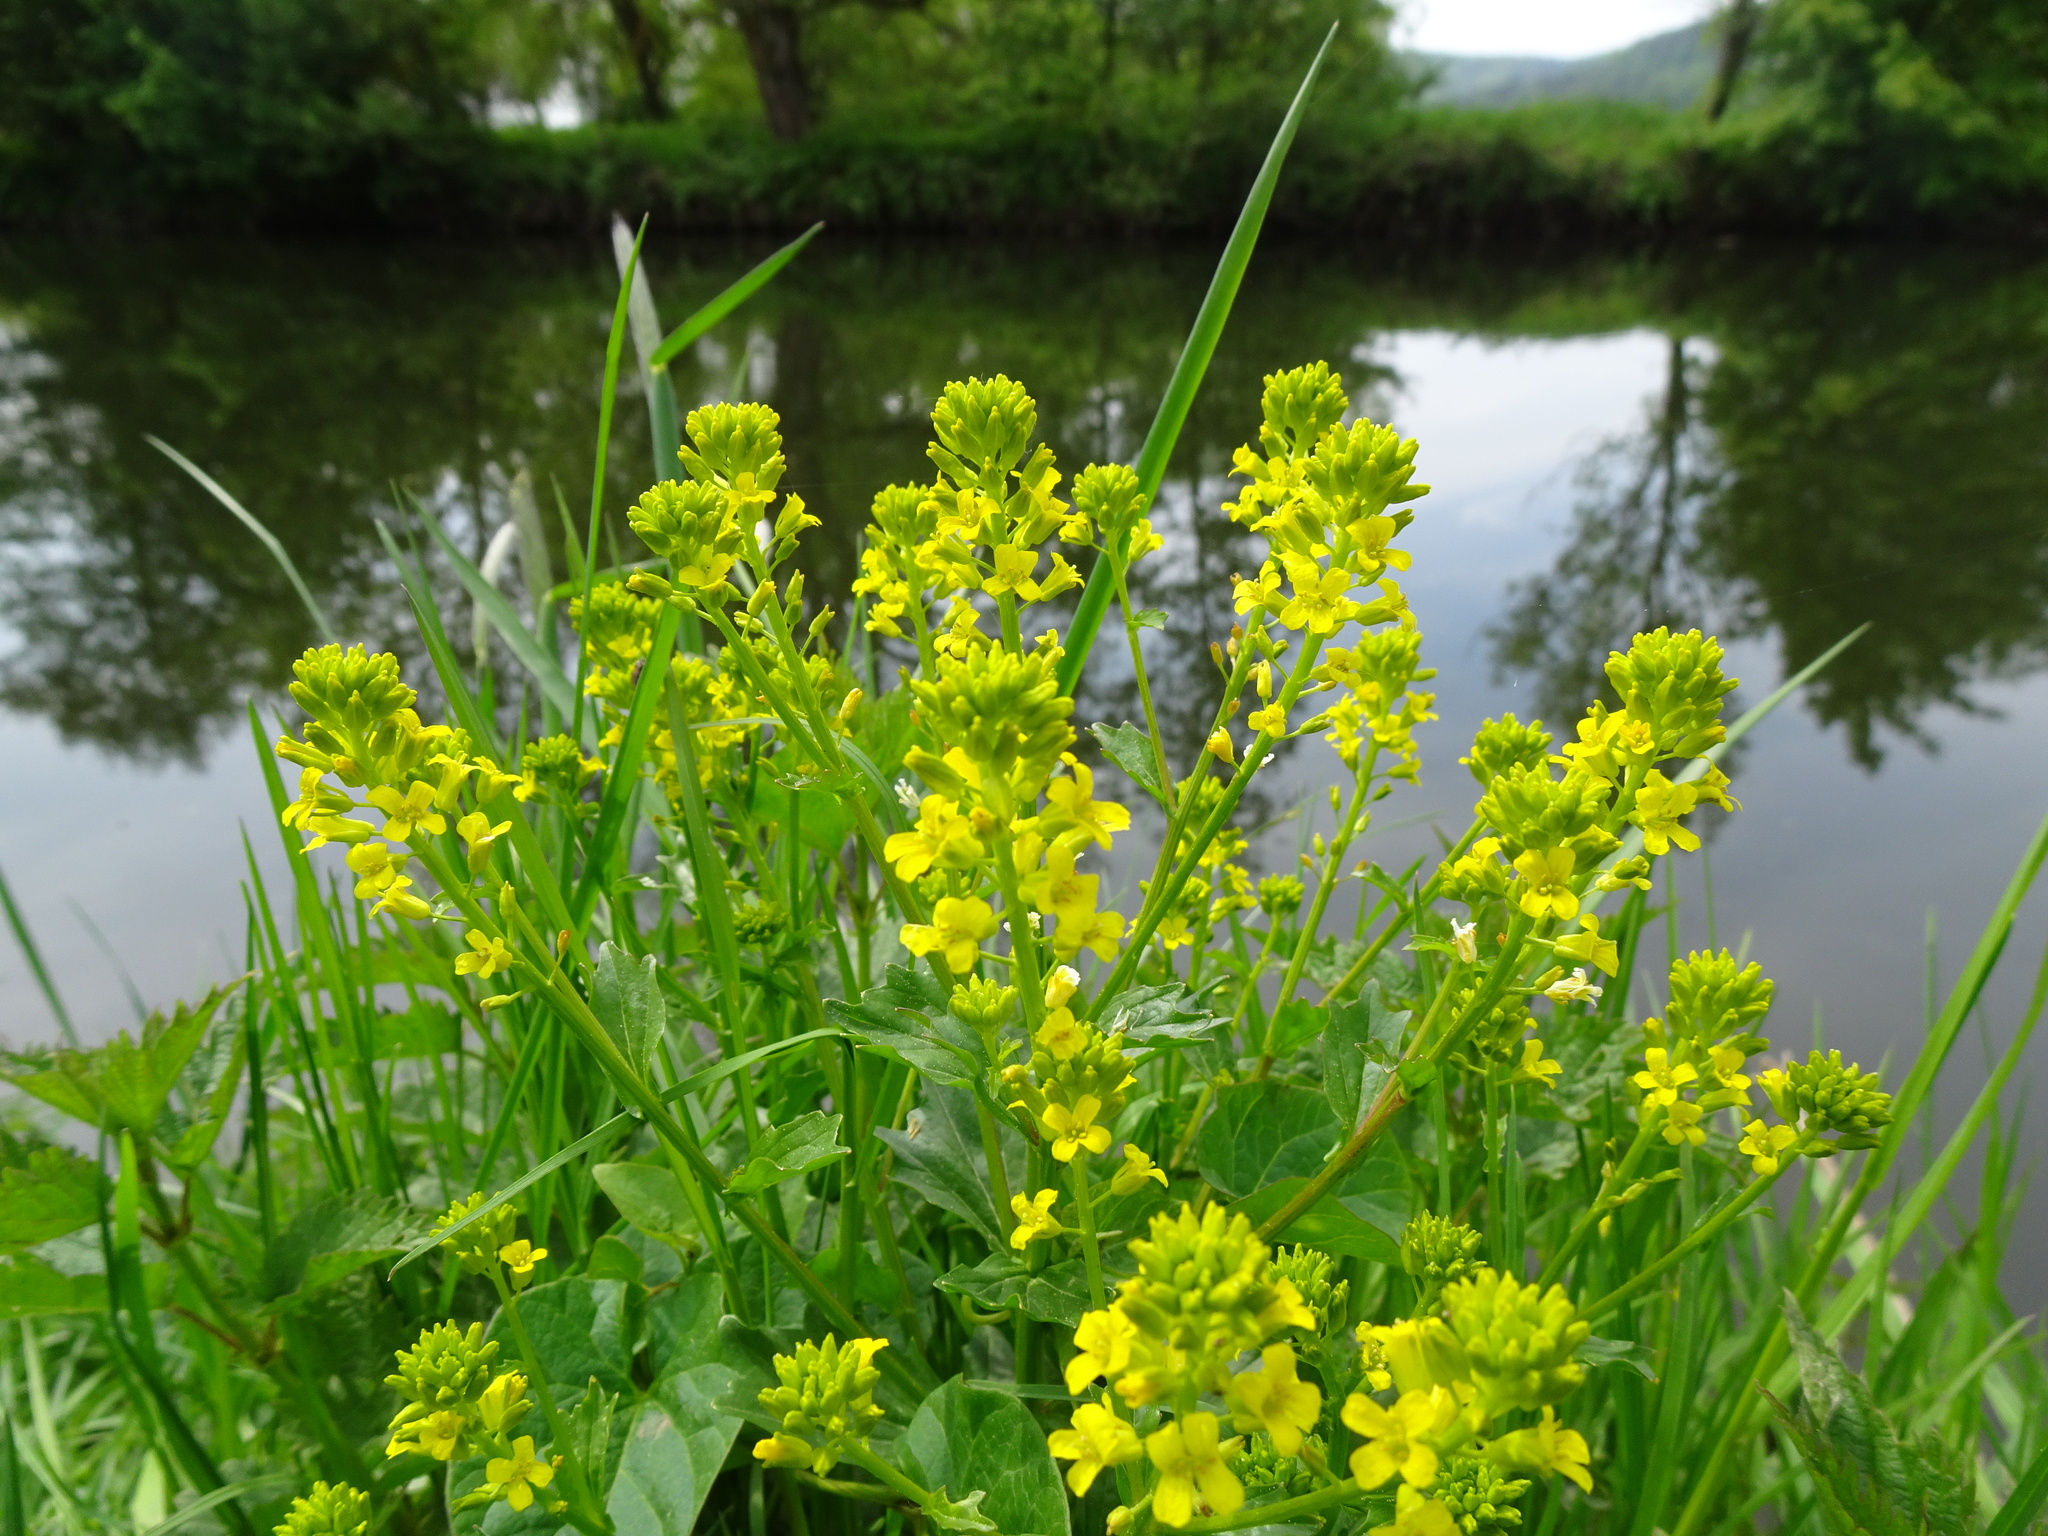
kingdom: Plantae
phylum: Tracheophyta
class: Magnoliopsida
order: Brassicales
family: Brassicaceae
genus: Barbarea
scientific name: Barbarea vulgaris
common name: Cressy-greens
